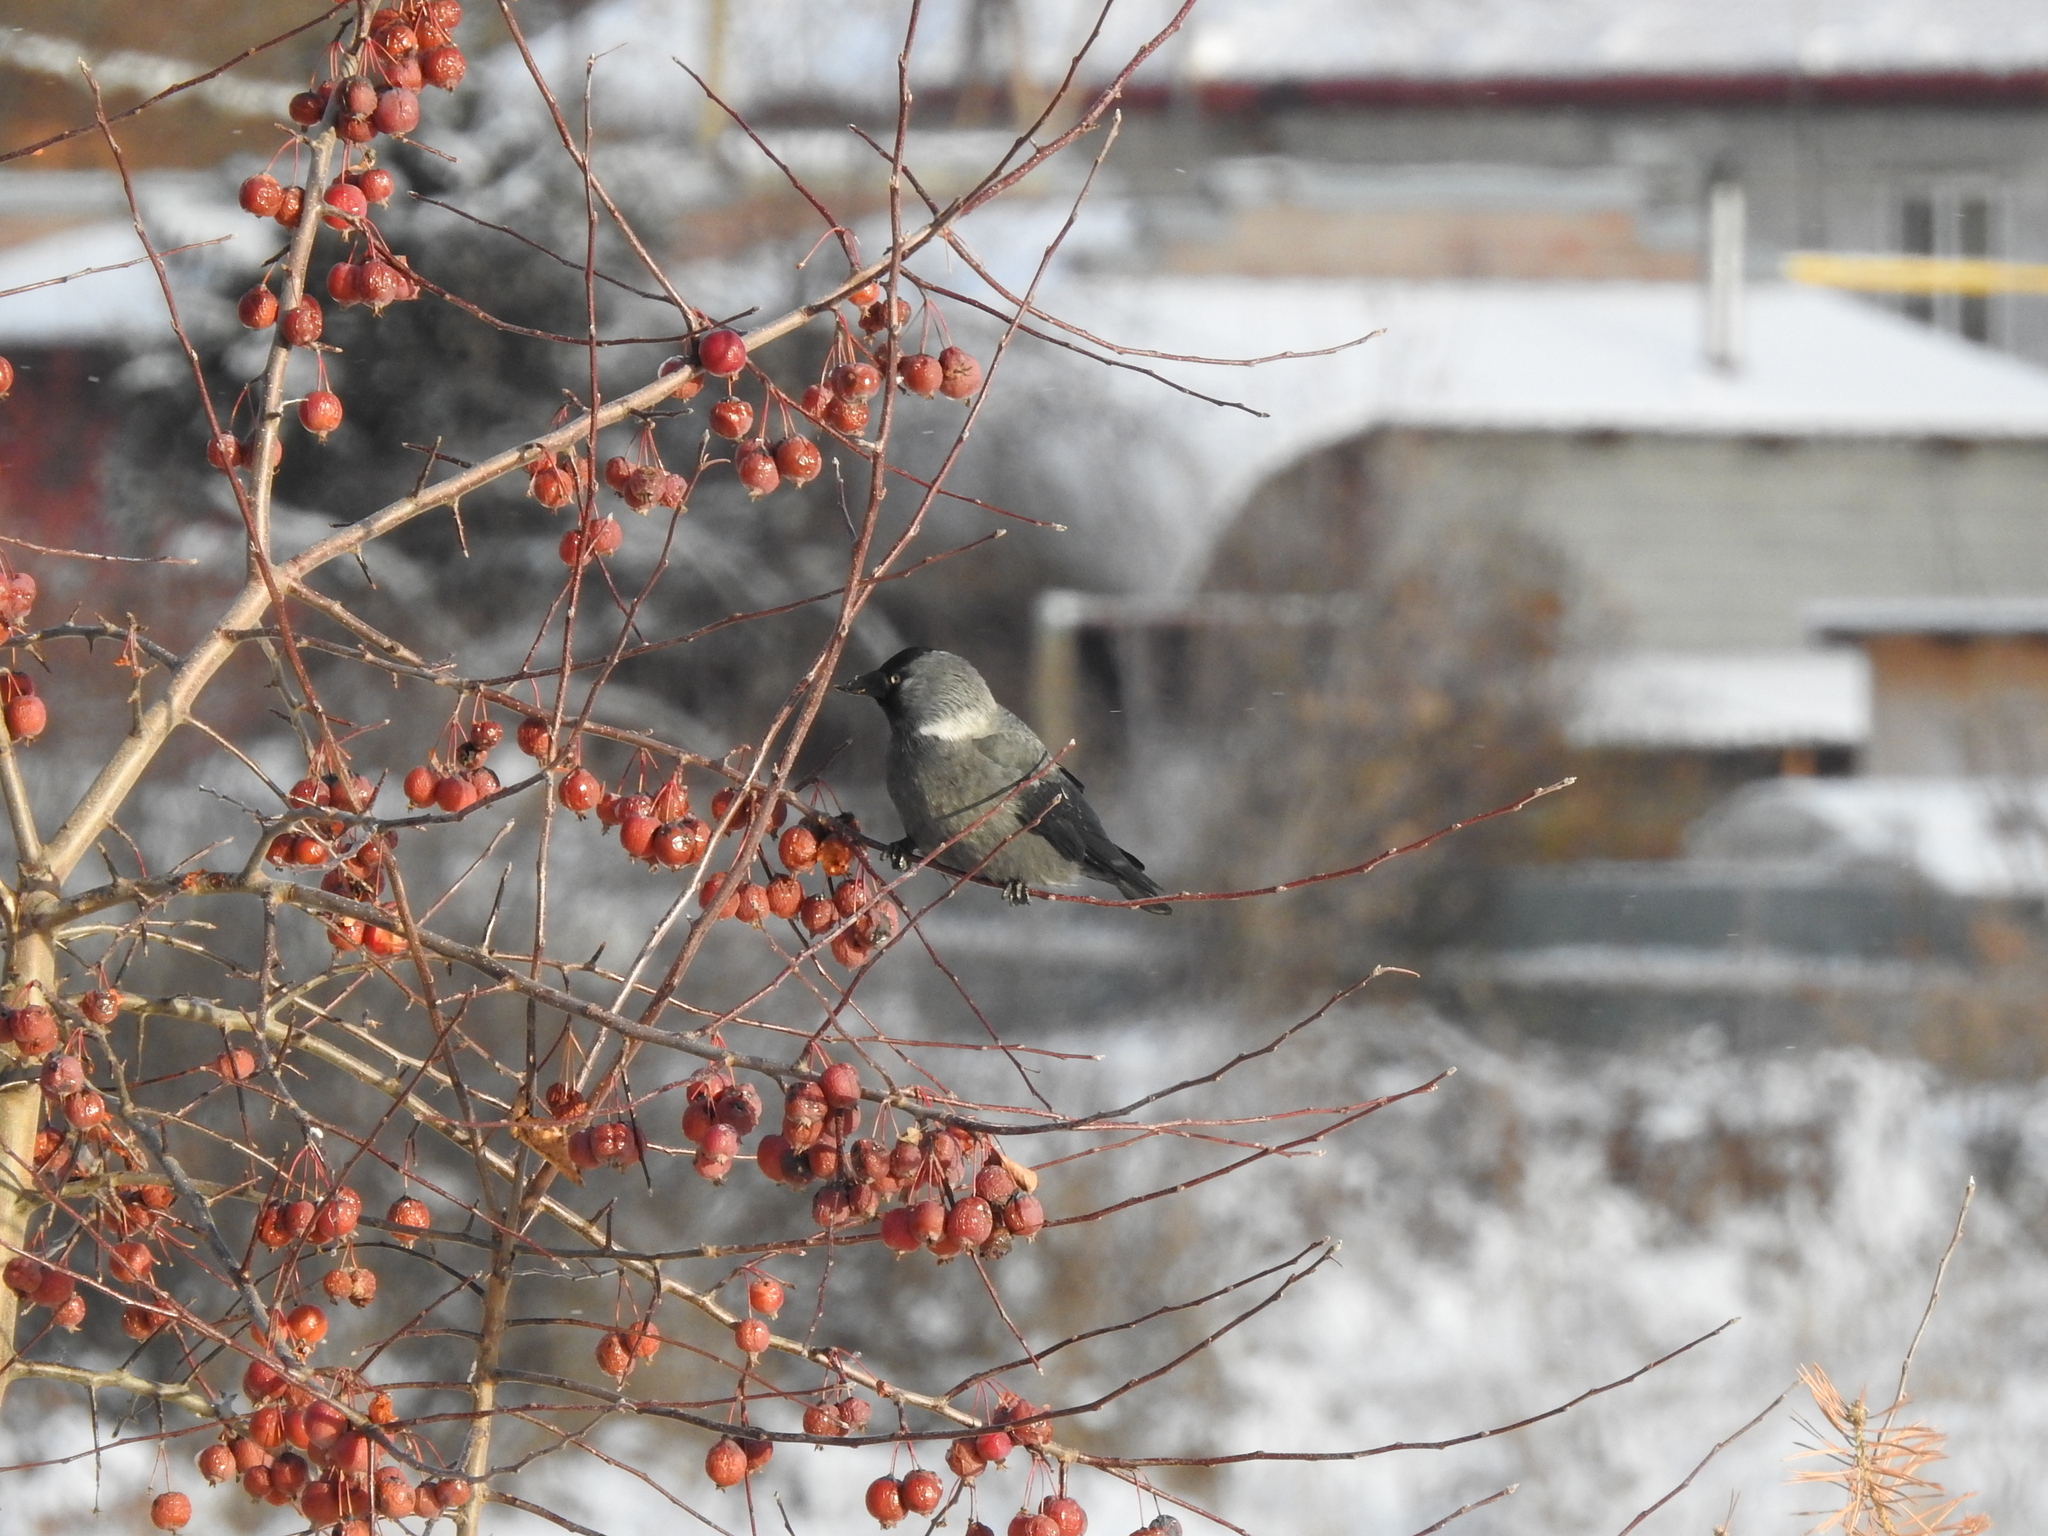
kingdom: Animalia
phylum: Chordata
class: Aves
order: Passeriformes
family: Corvidae
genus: Coloeus
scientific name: Coloeus monedula
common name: Western jackdaw
